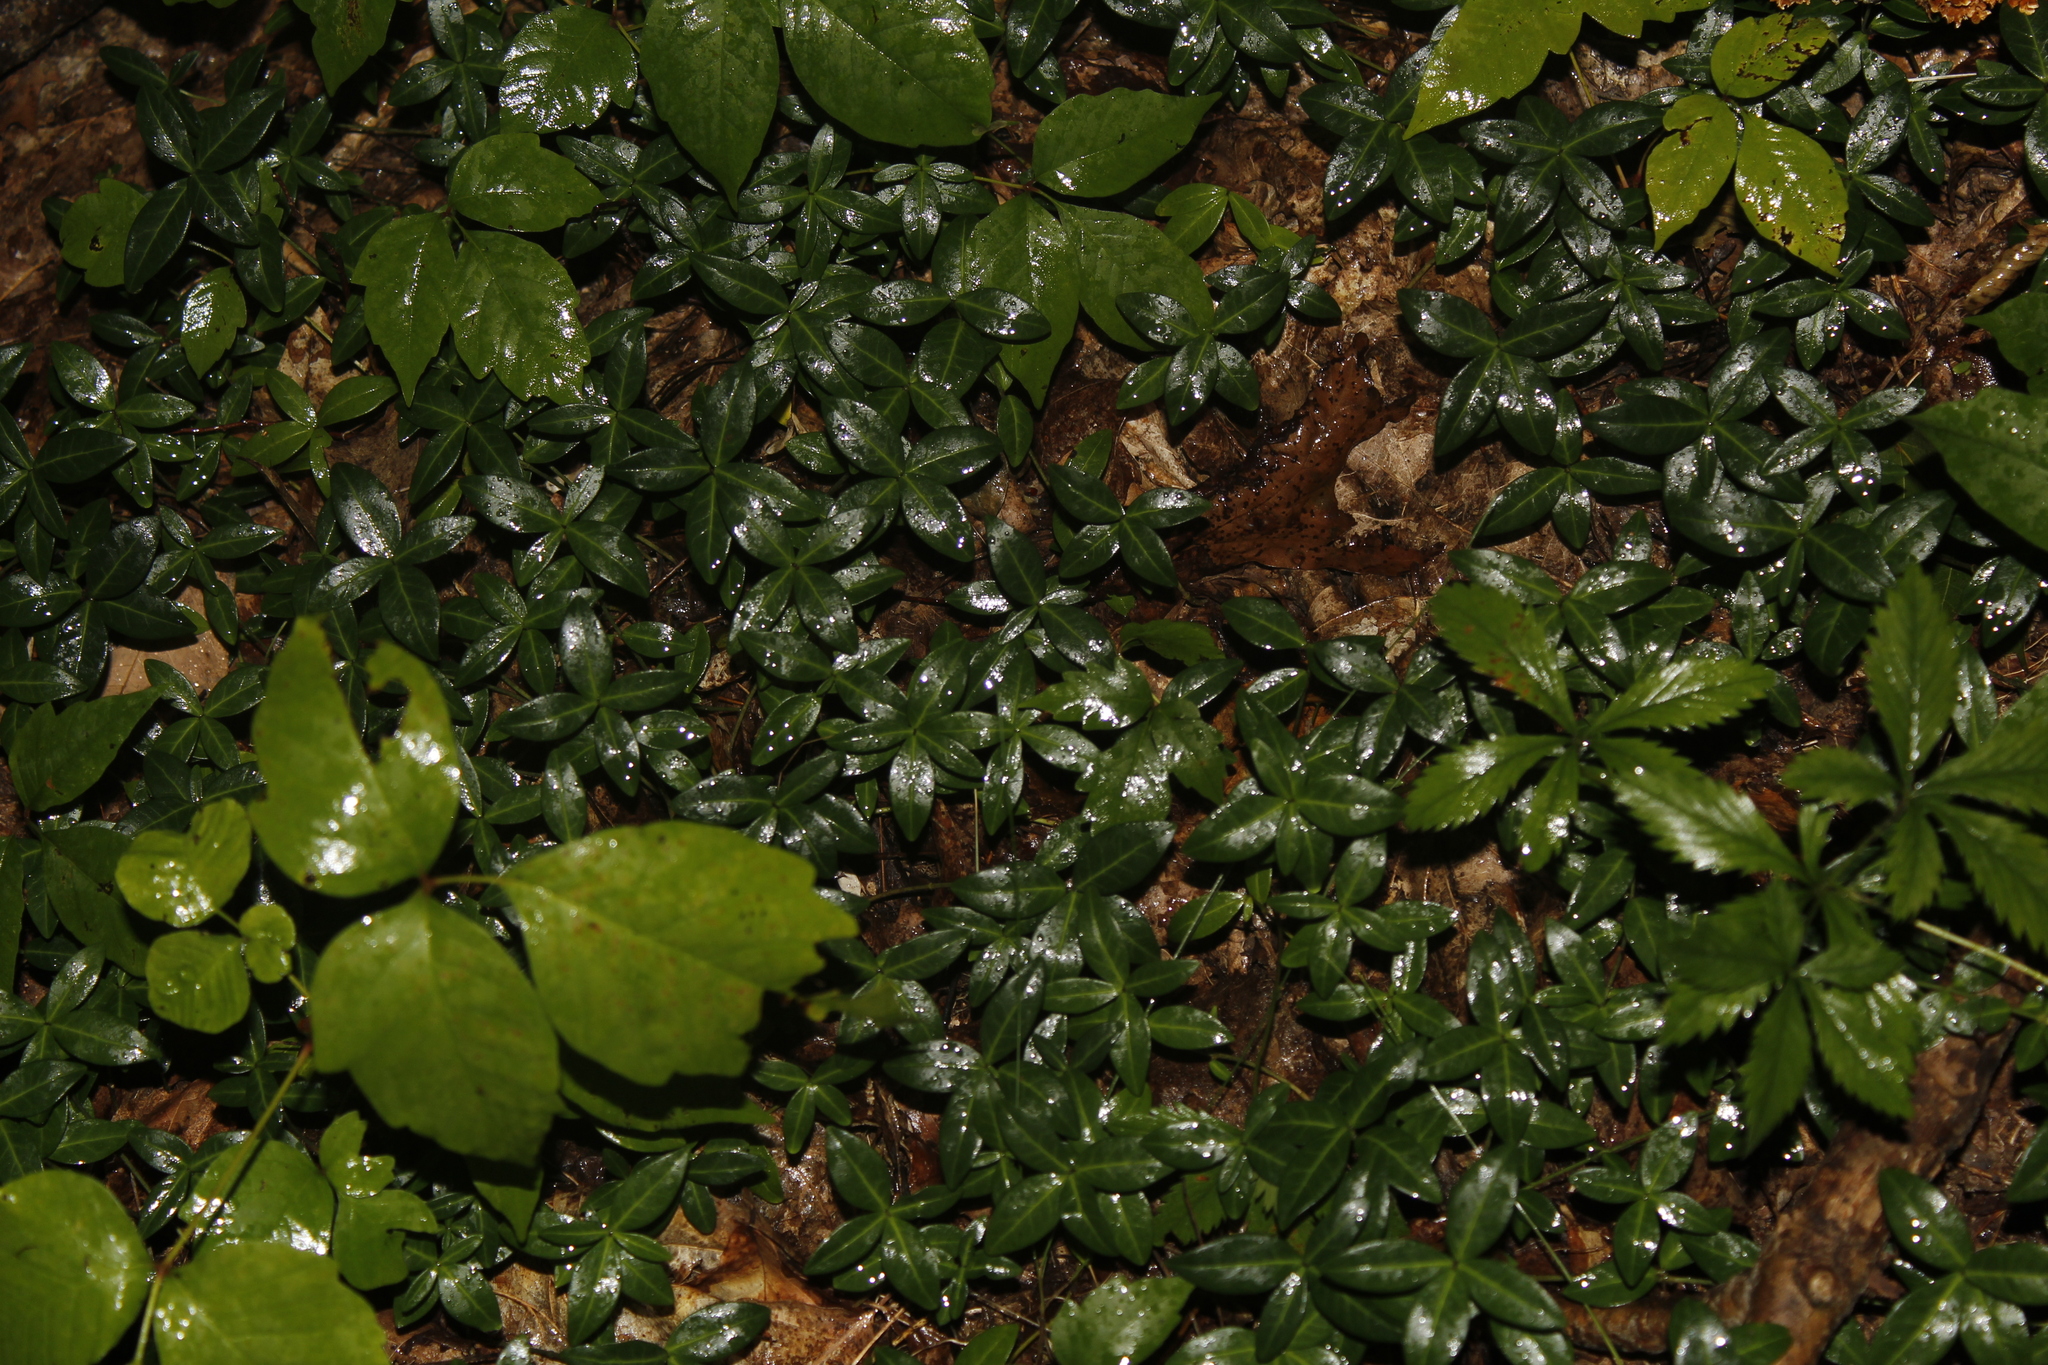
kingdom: Plantae
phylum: Tracheophyta
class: Magnoliopsida
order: Gentianales
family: Apocynaceae
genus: Vinca
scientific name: Vinca minor
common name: Lesser periwinkle
